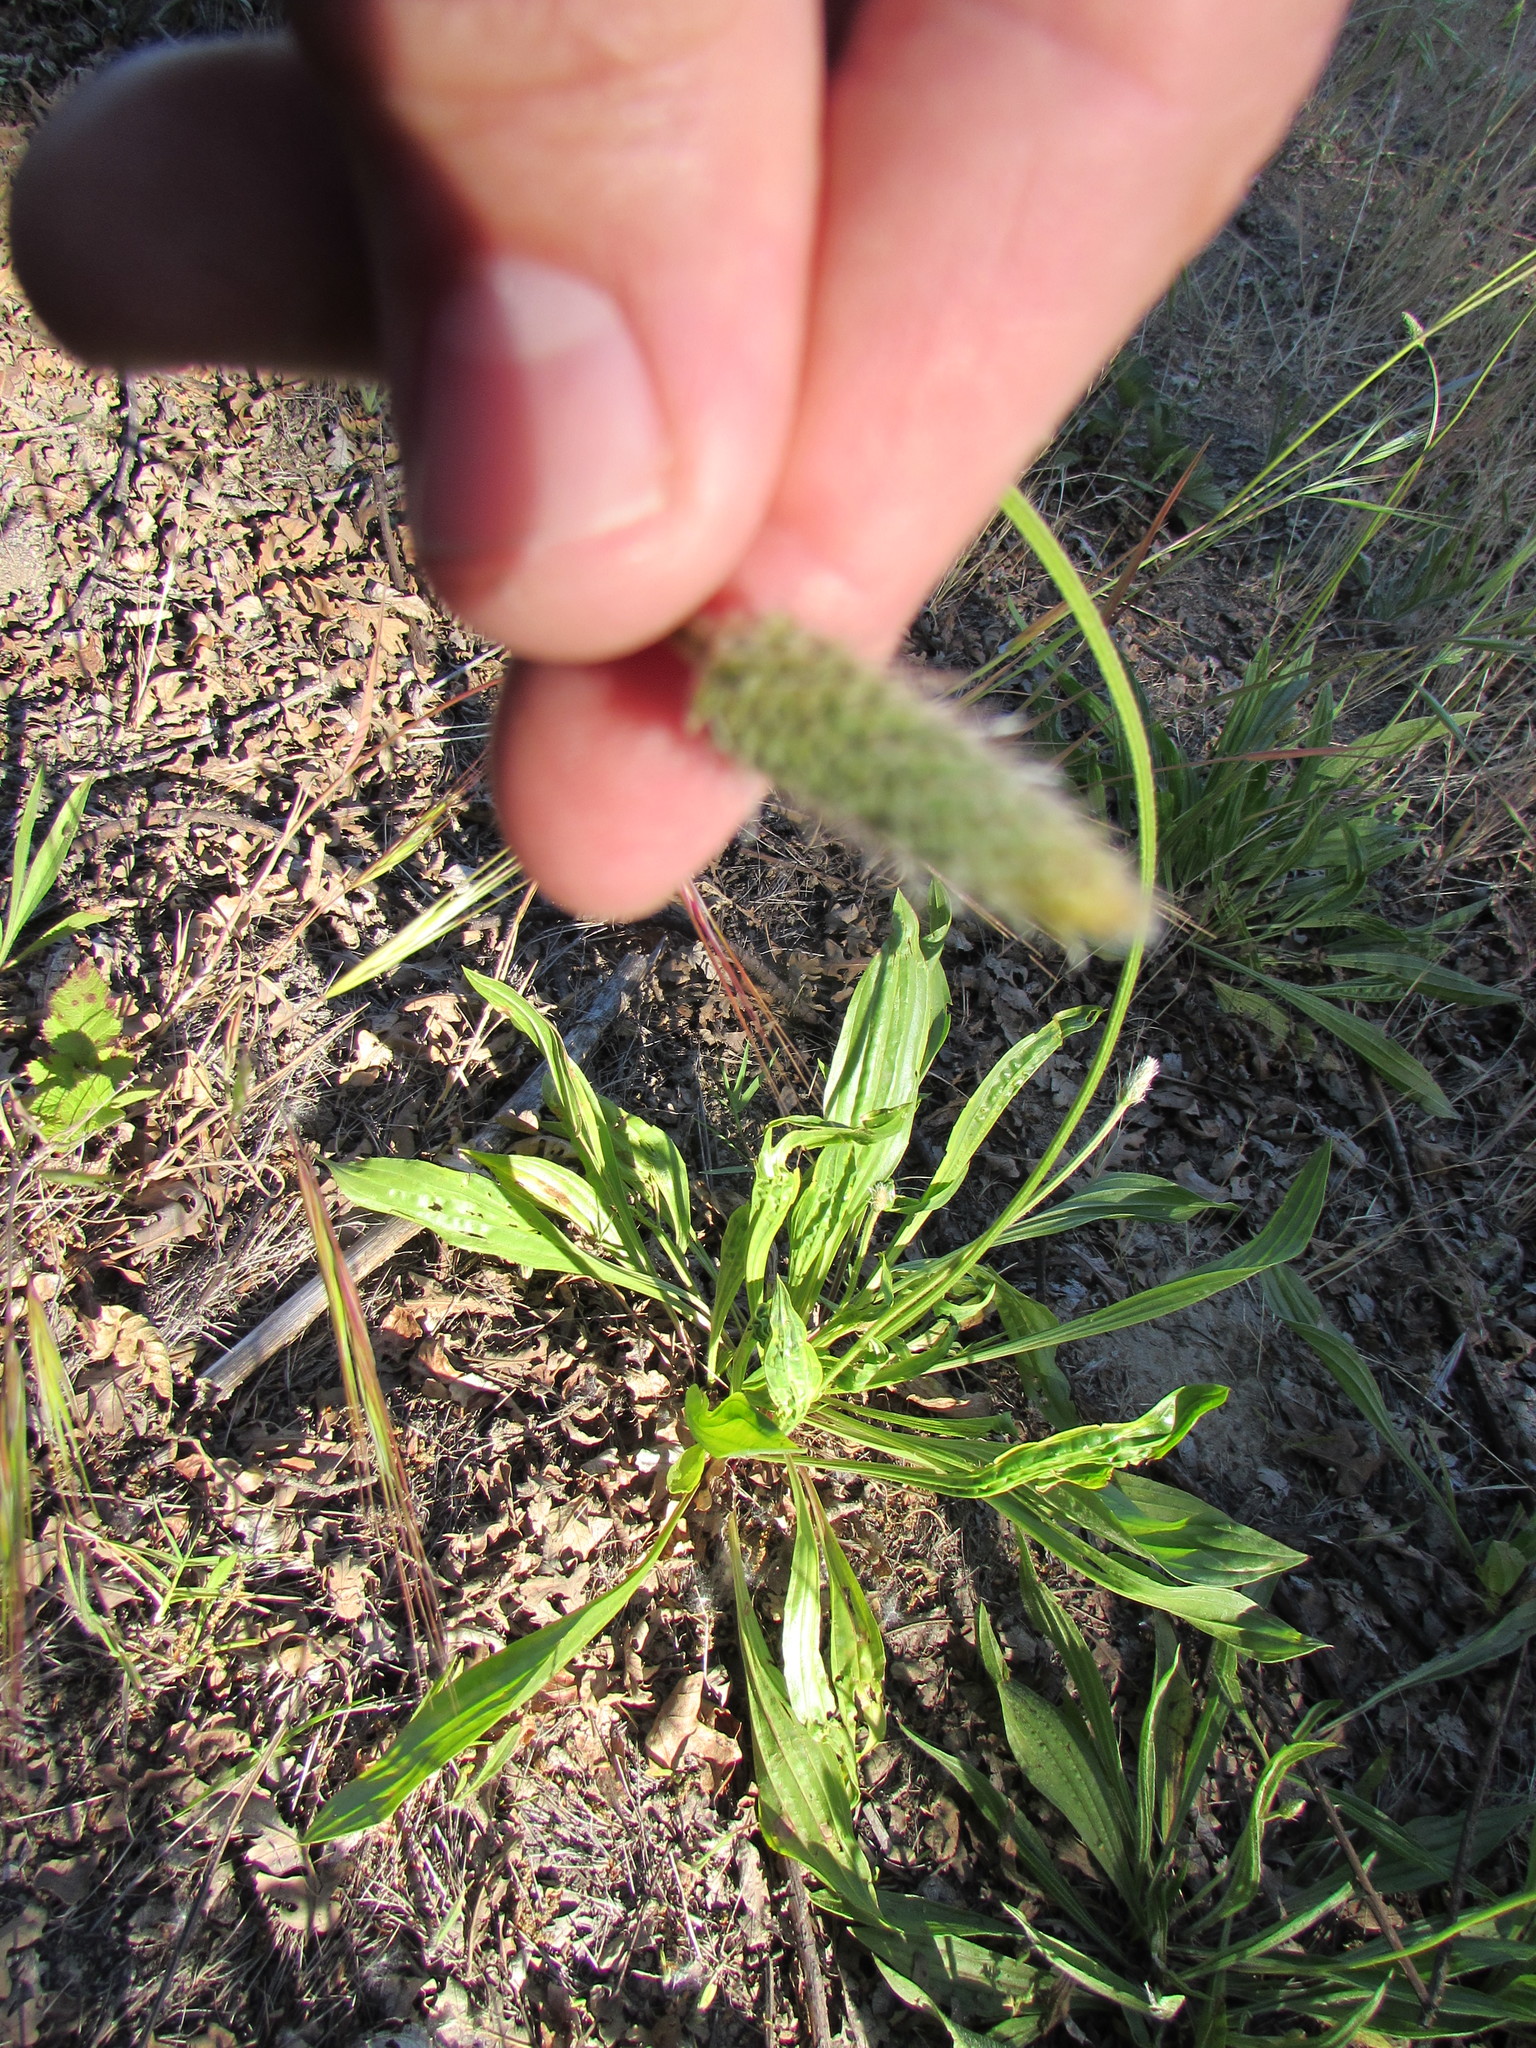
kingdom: Plantae
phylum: Tracheophyta
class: Magnoliopsida
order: Lamiales
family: Plantaginaceae
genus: Plantago
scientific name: Plantago lanceolata
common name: Ribwort plantain
